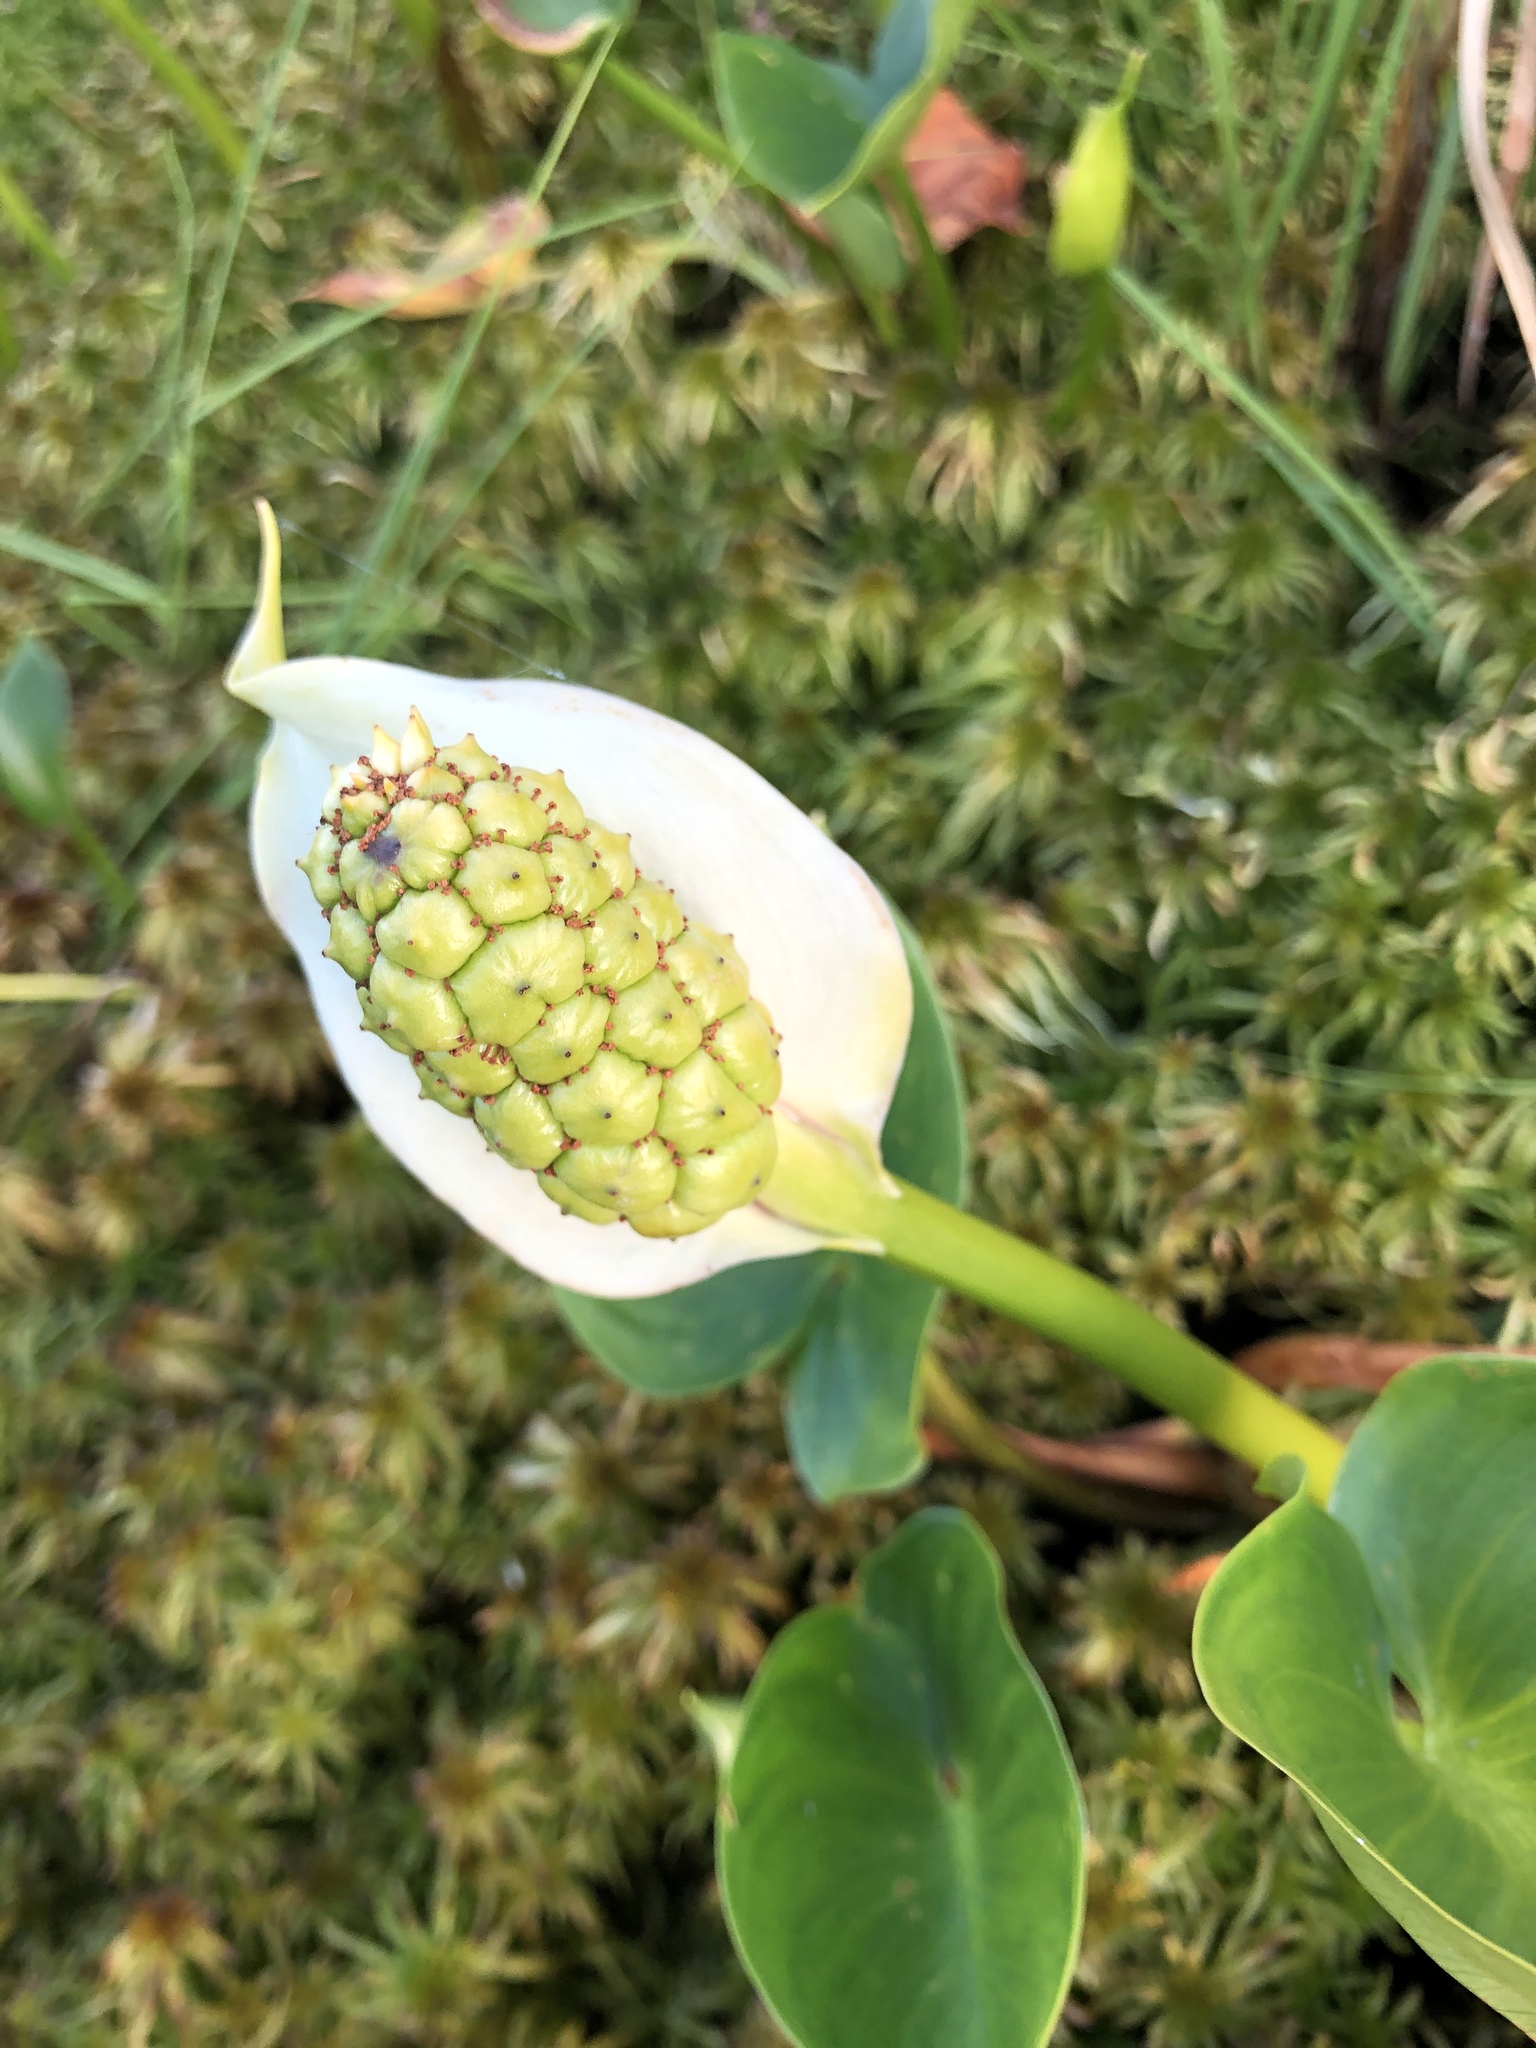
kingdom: Plantae
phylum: Tracheophyta
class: Liliopsida
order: Alismatales
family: Araceae
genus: Calla
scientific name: Calla palustris
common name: Bog arum
